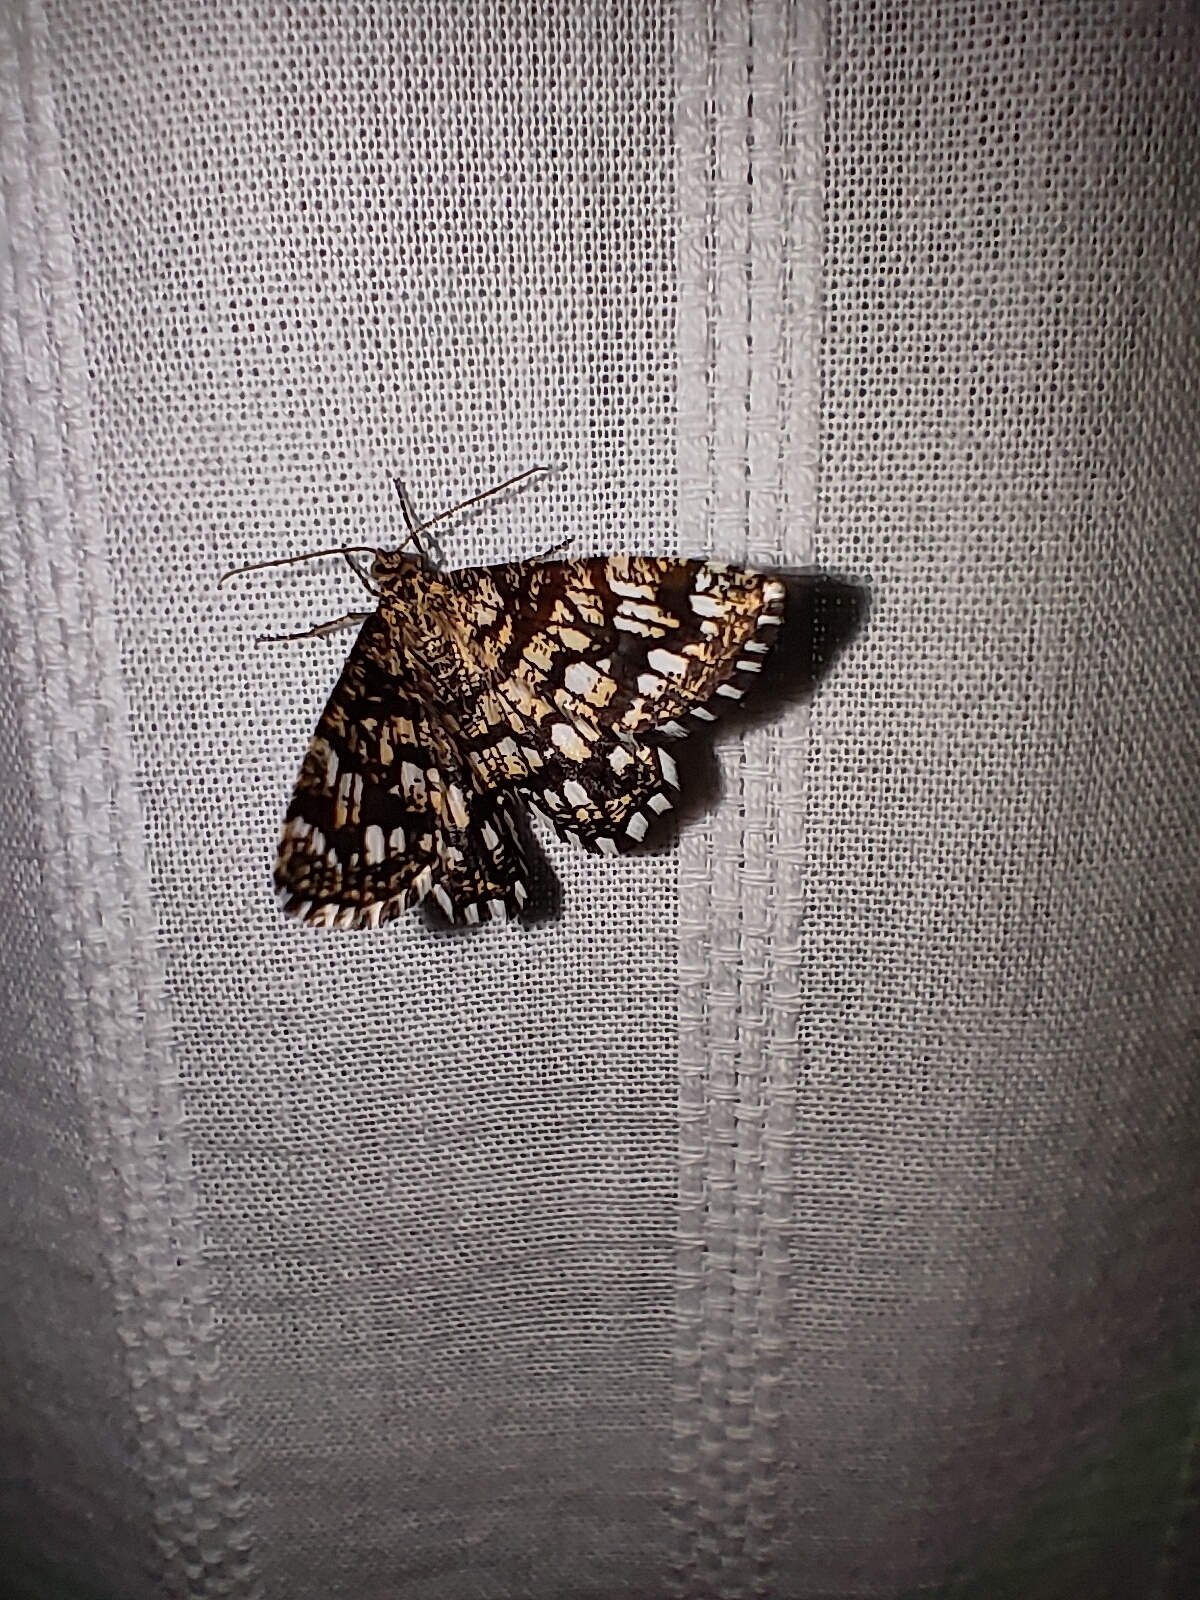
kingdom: Animalia
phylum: Arthropoda
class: Insecta
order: Lepidoptera
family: Geometridae
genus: Chiasmia
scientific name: Chiasmia clathrata
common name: Latticed heath
